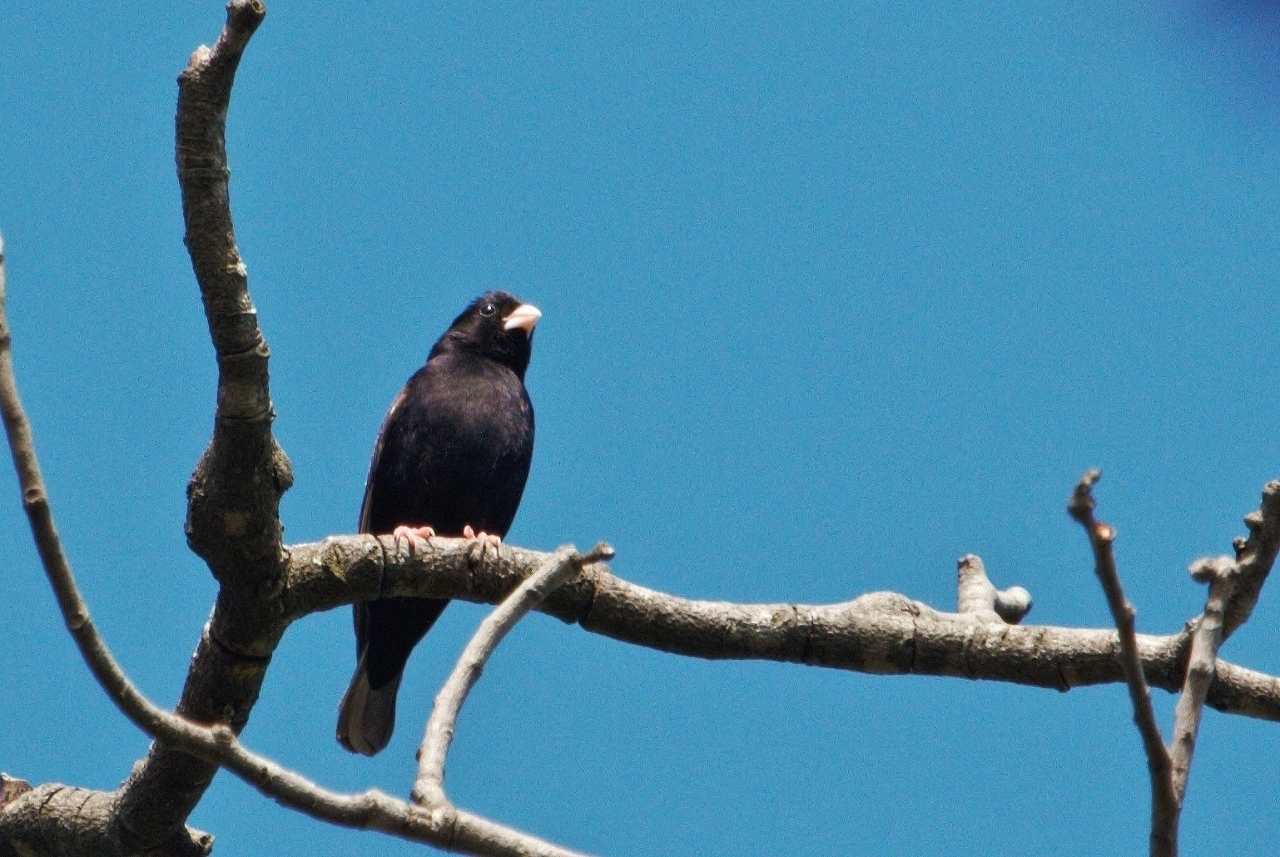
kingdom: Animalia
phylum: Chordata
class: Aves
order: Passeriformes
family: Viduidae
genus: Vidua
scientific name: Vidua purpurascens
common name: Purple indigobird
